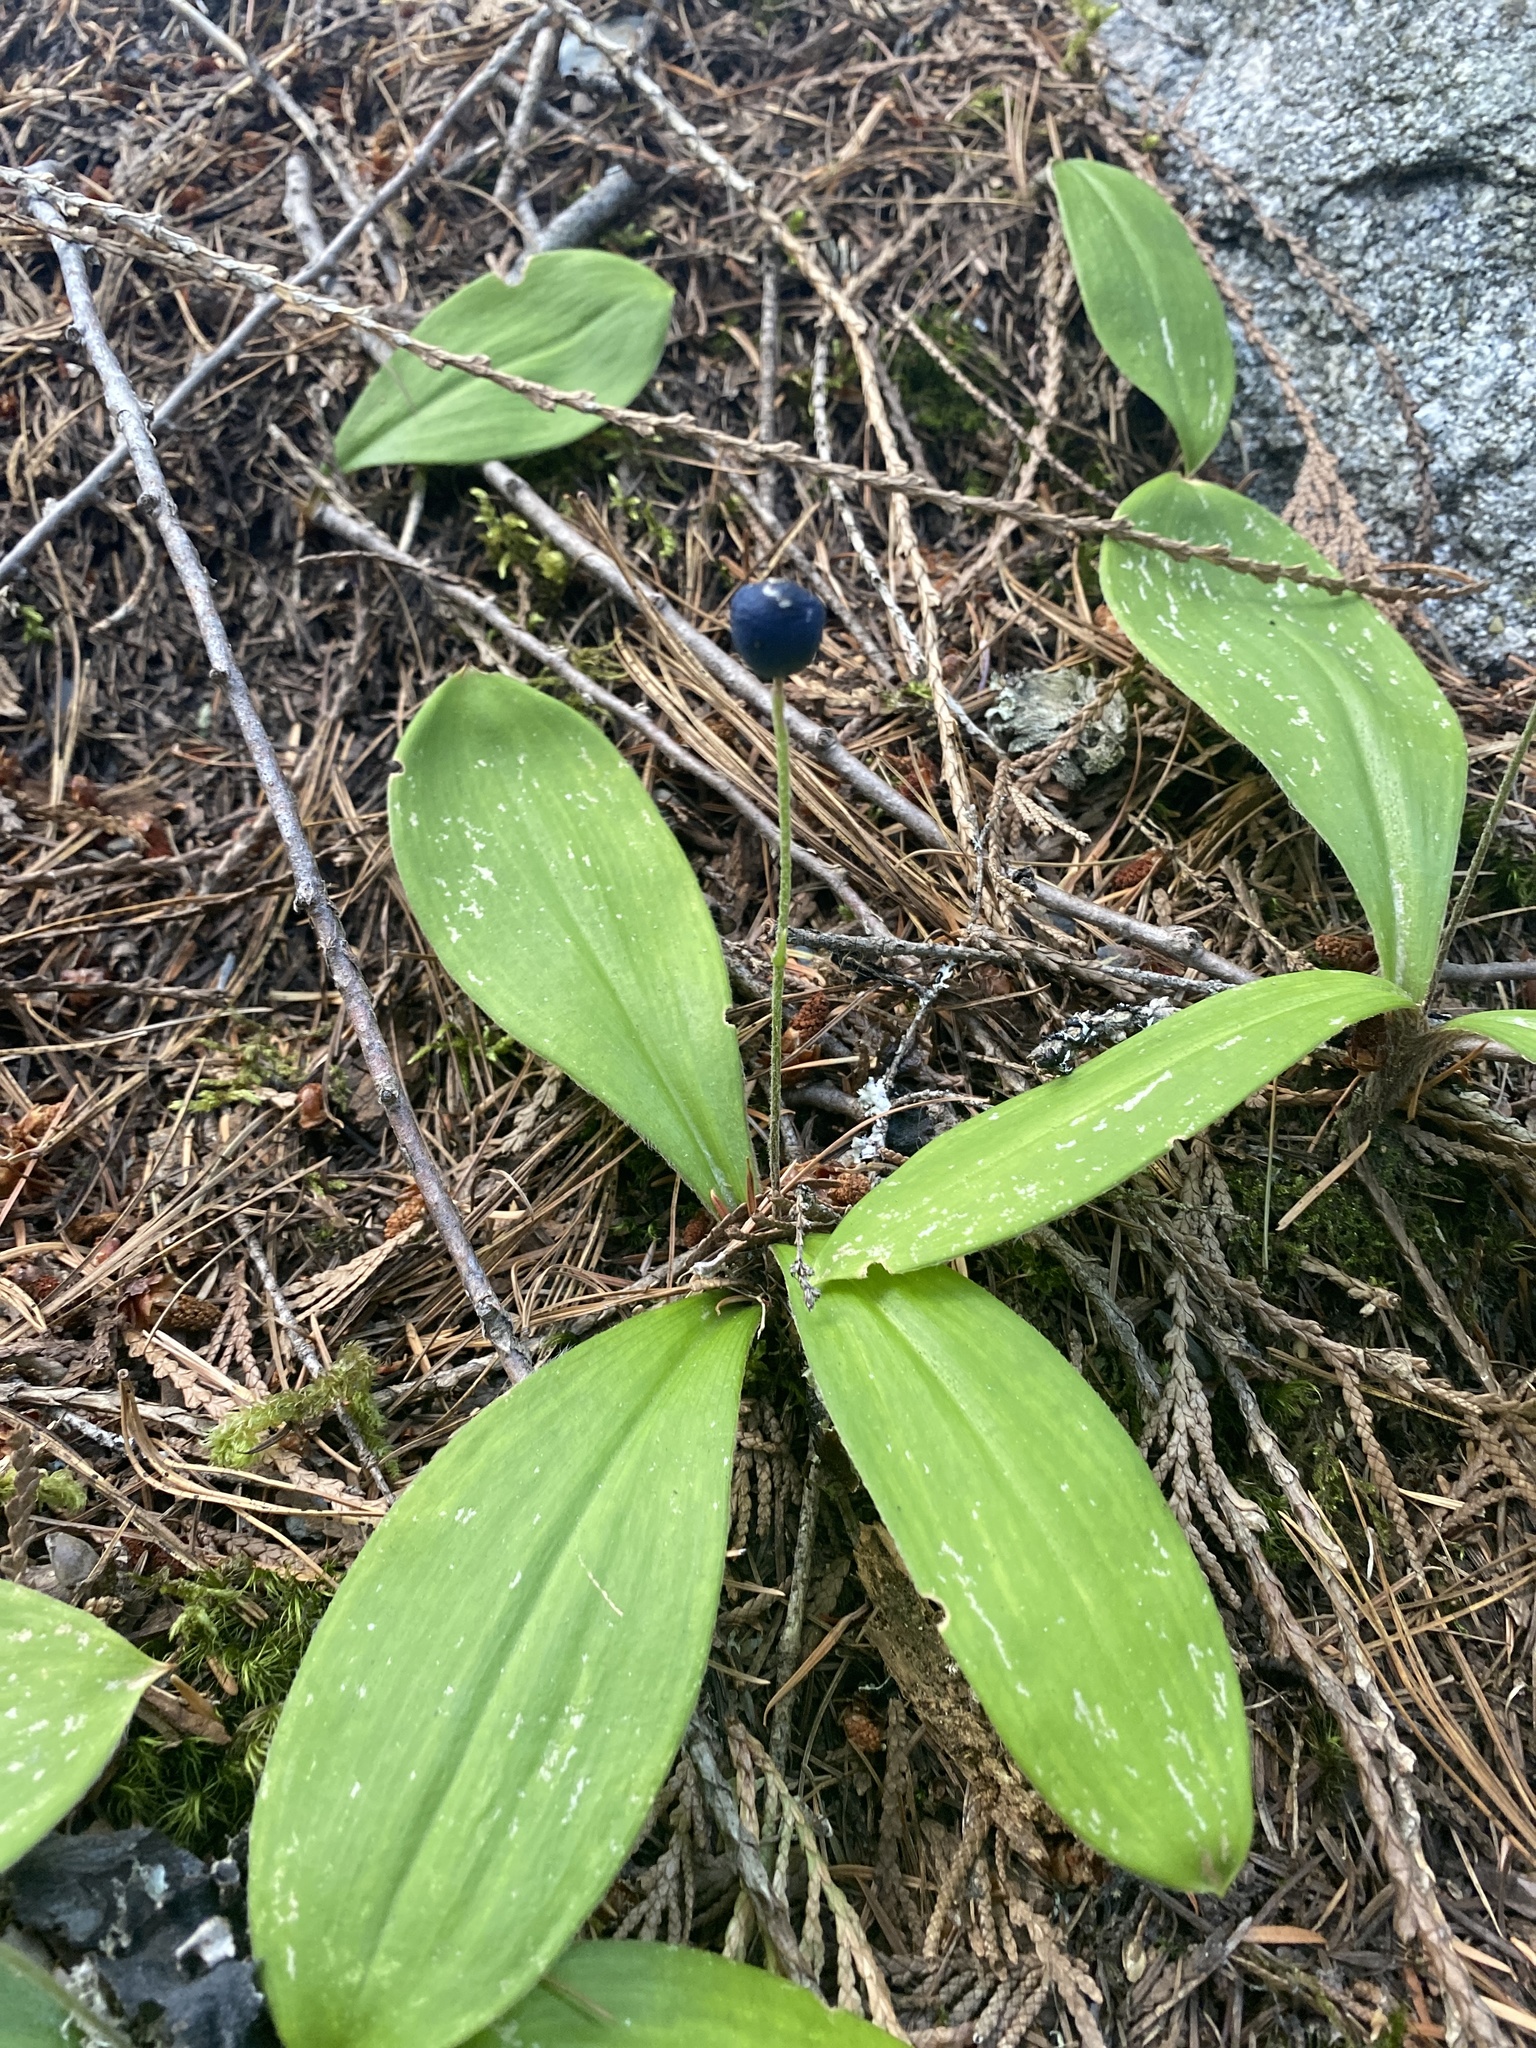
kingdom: Plantae
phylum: Tracheophyta
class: Liliopsida
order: Liliales
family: Liliaceae
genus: Clintonia
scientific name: Clintonia uniflora
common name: Queen's cup
